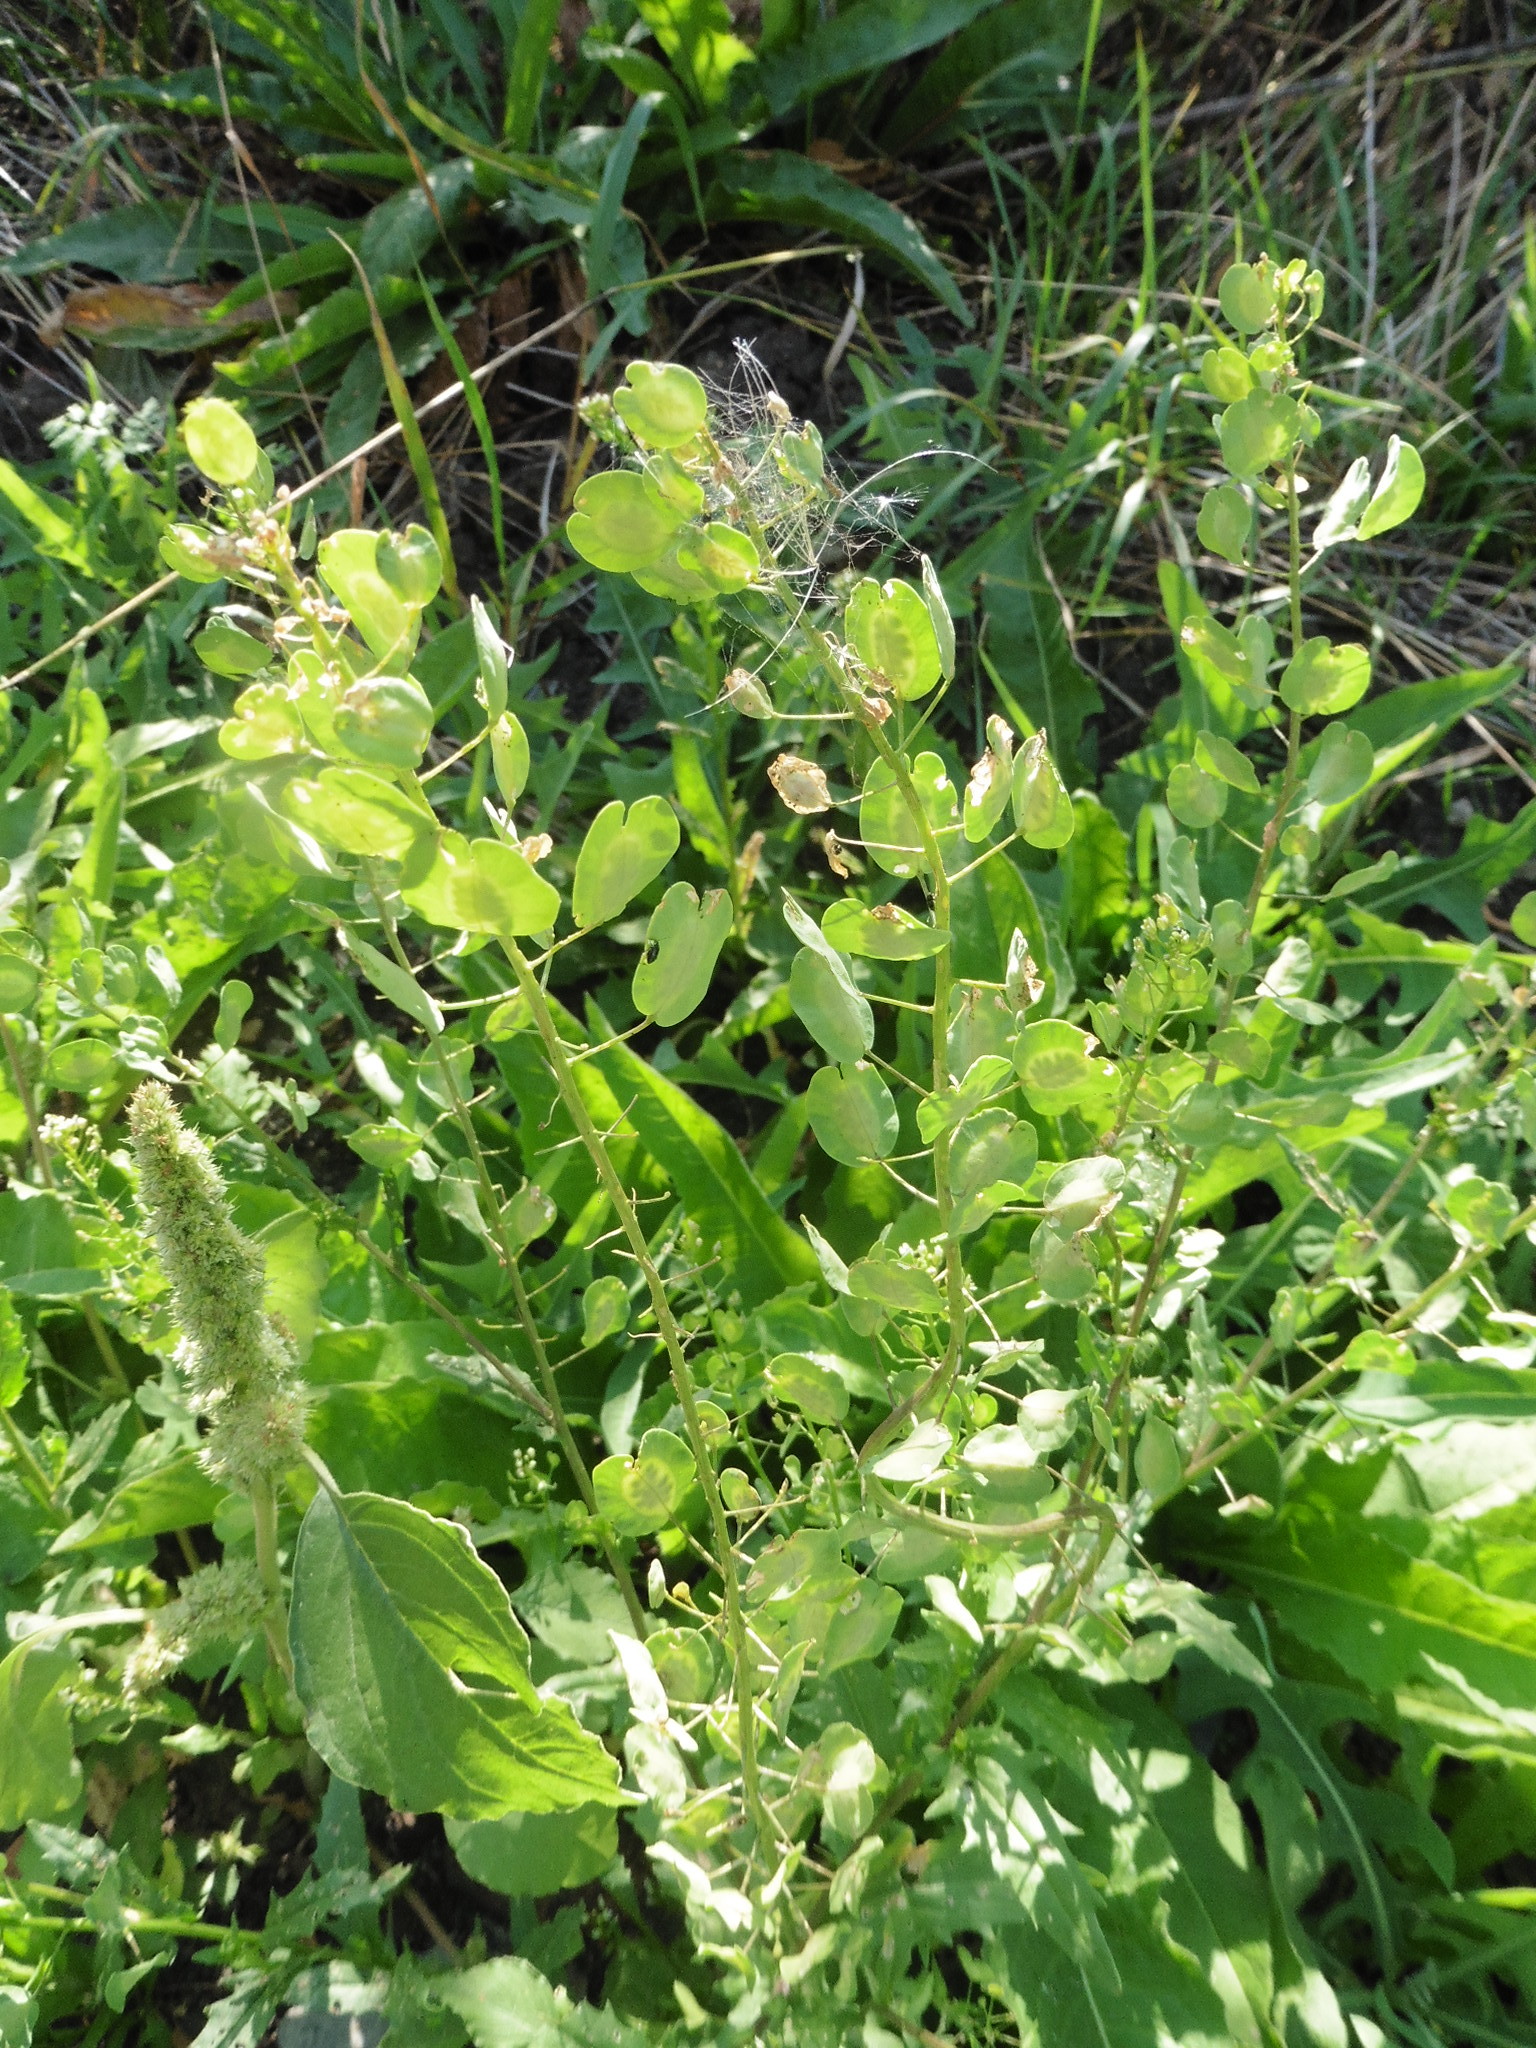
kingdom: Plantae
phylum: Tracheophyta
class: Magnoliopsida
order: Brassicales
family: Brassicaceae
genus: Thlaspi
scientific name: Thlaspi arvense
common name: Field pennycress
